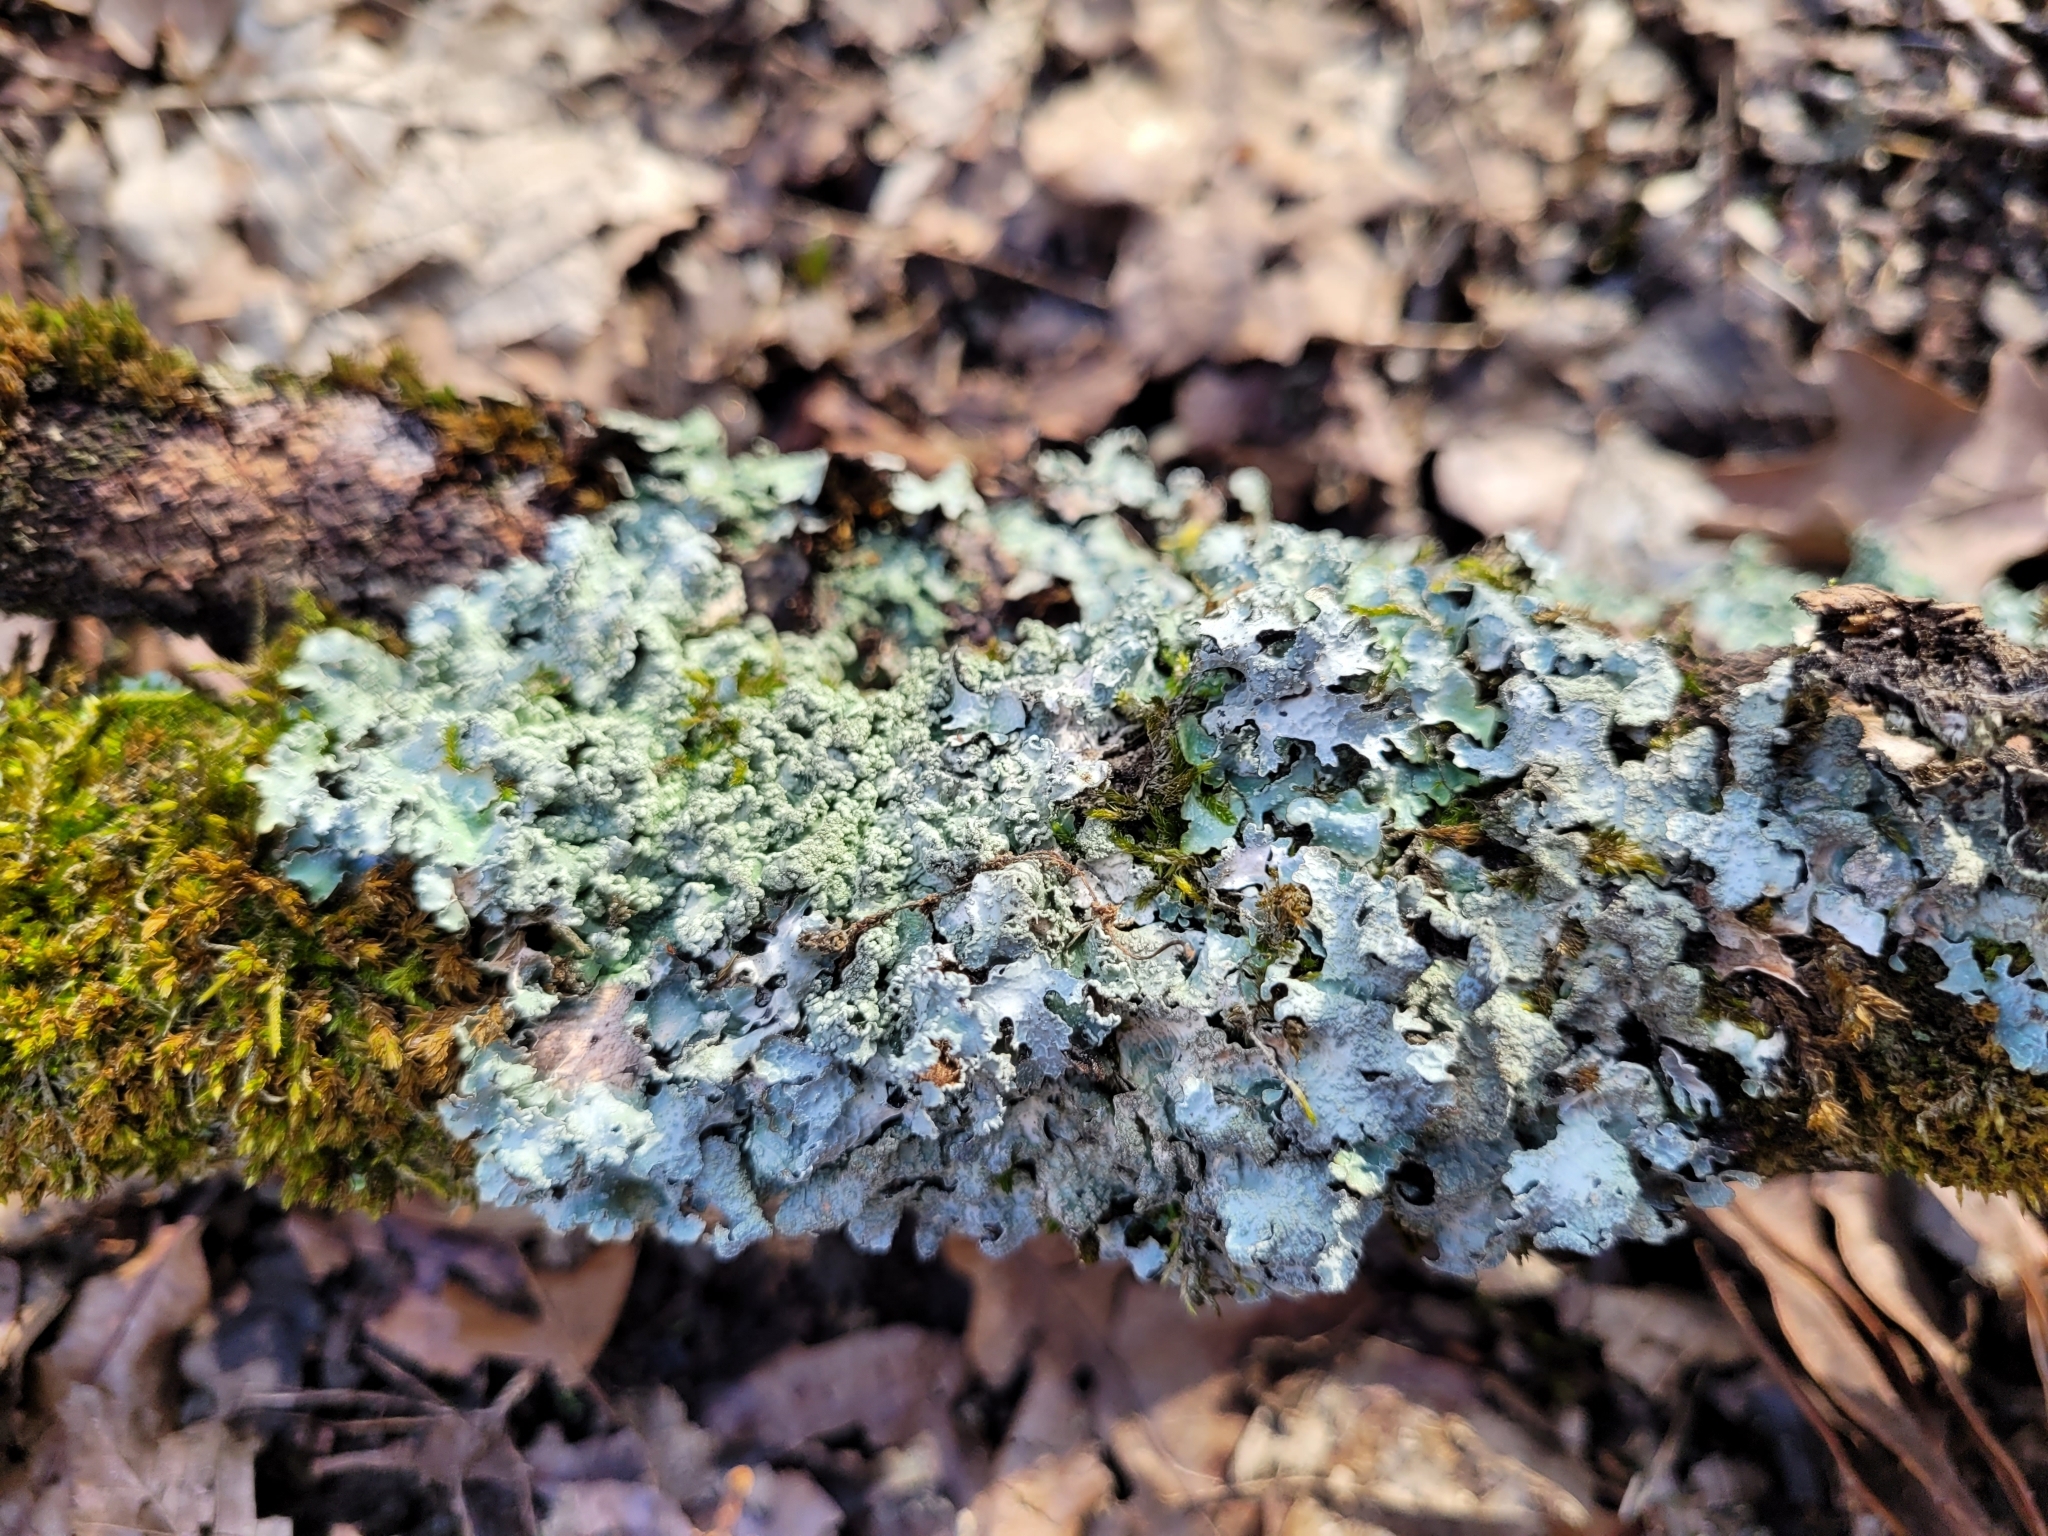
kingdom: Fungi
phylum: Ascomycota
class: Lecanoromycetes
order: Lecanorales
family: Parmeliaceae
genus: Parmelia
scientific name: Parmelia sulcata
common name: Netted shield lichen
